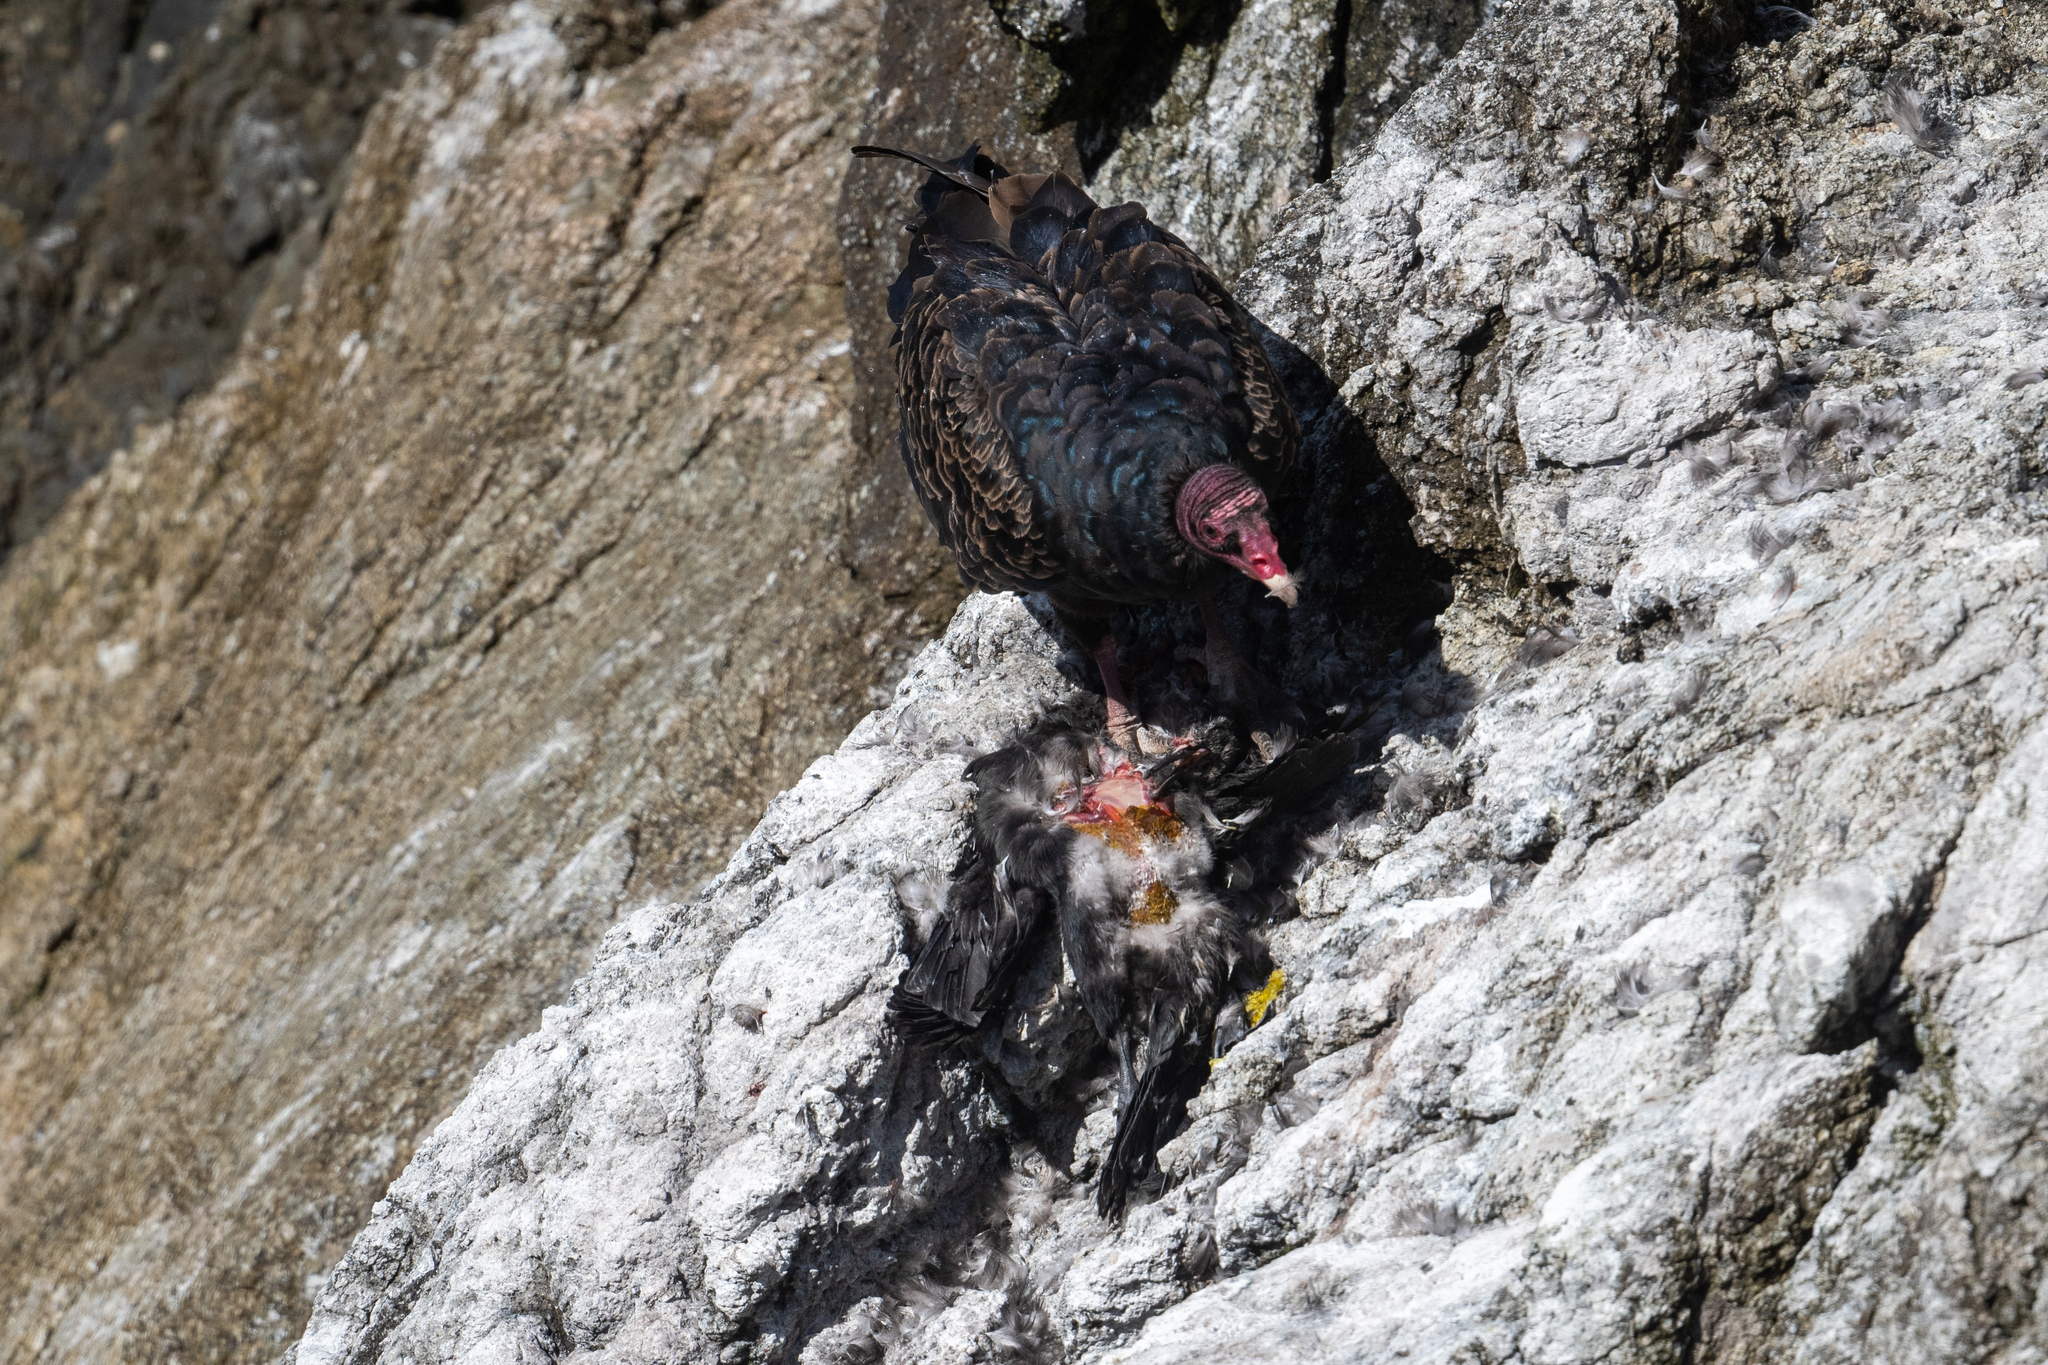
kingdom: Animalia
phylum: Chordata
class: Aves
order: Accipitriformes
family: Cathartidae
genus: Cathartes
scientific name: Cathartes aura
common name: Turkey vulture
